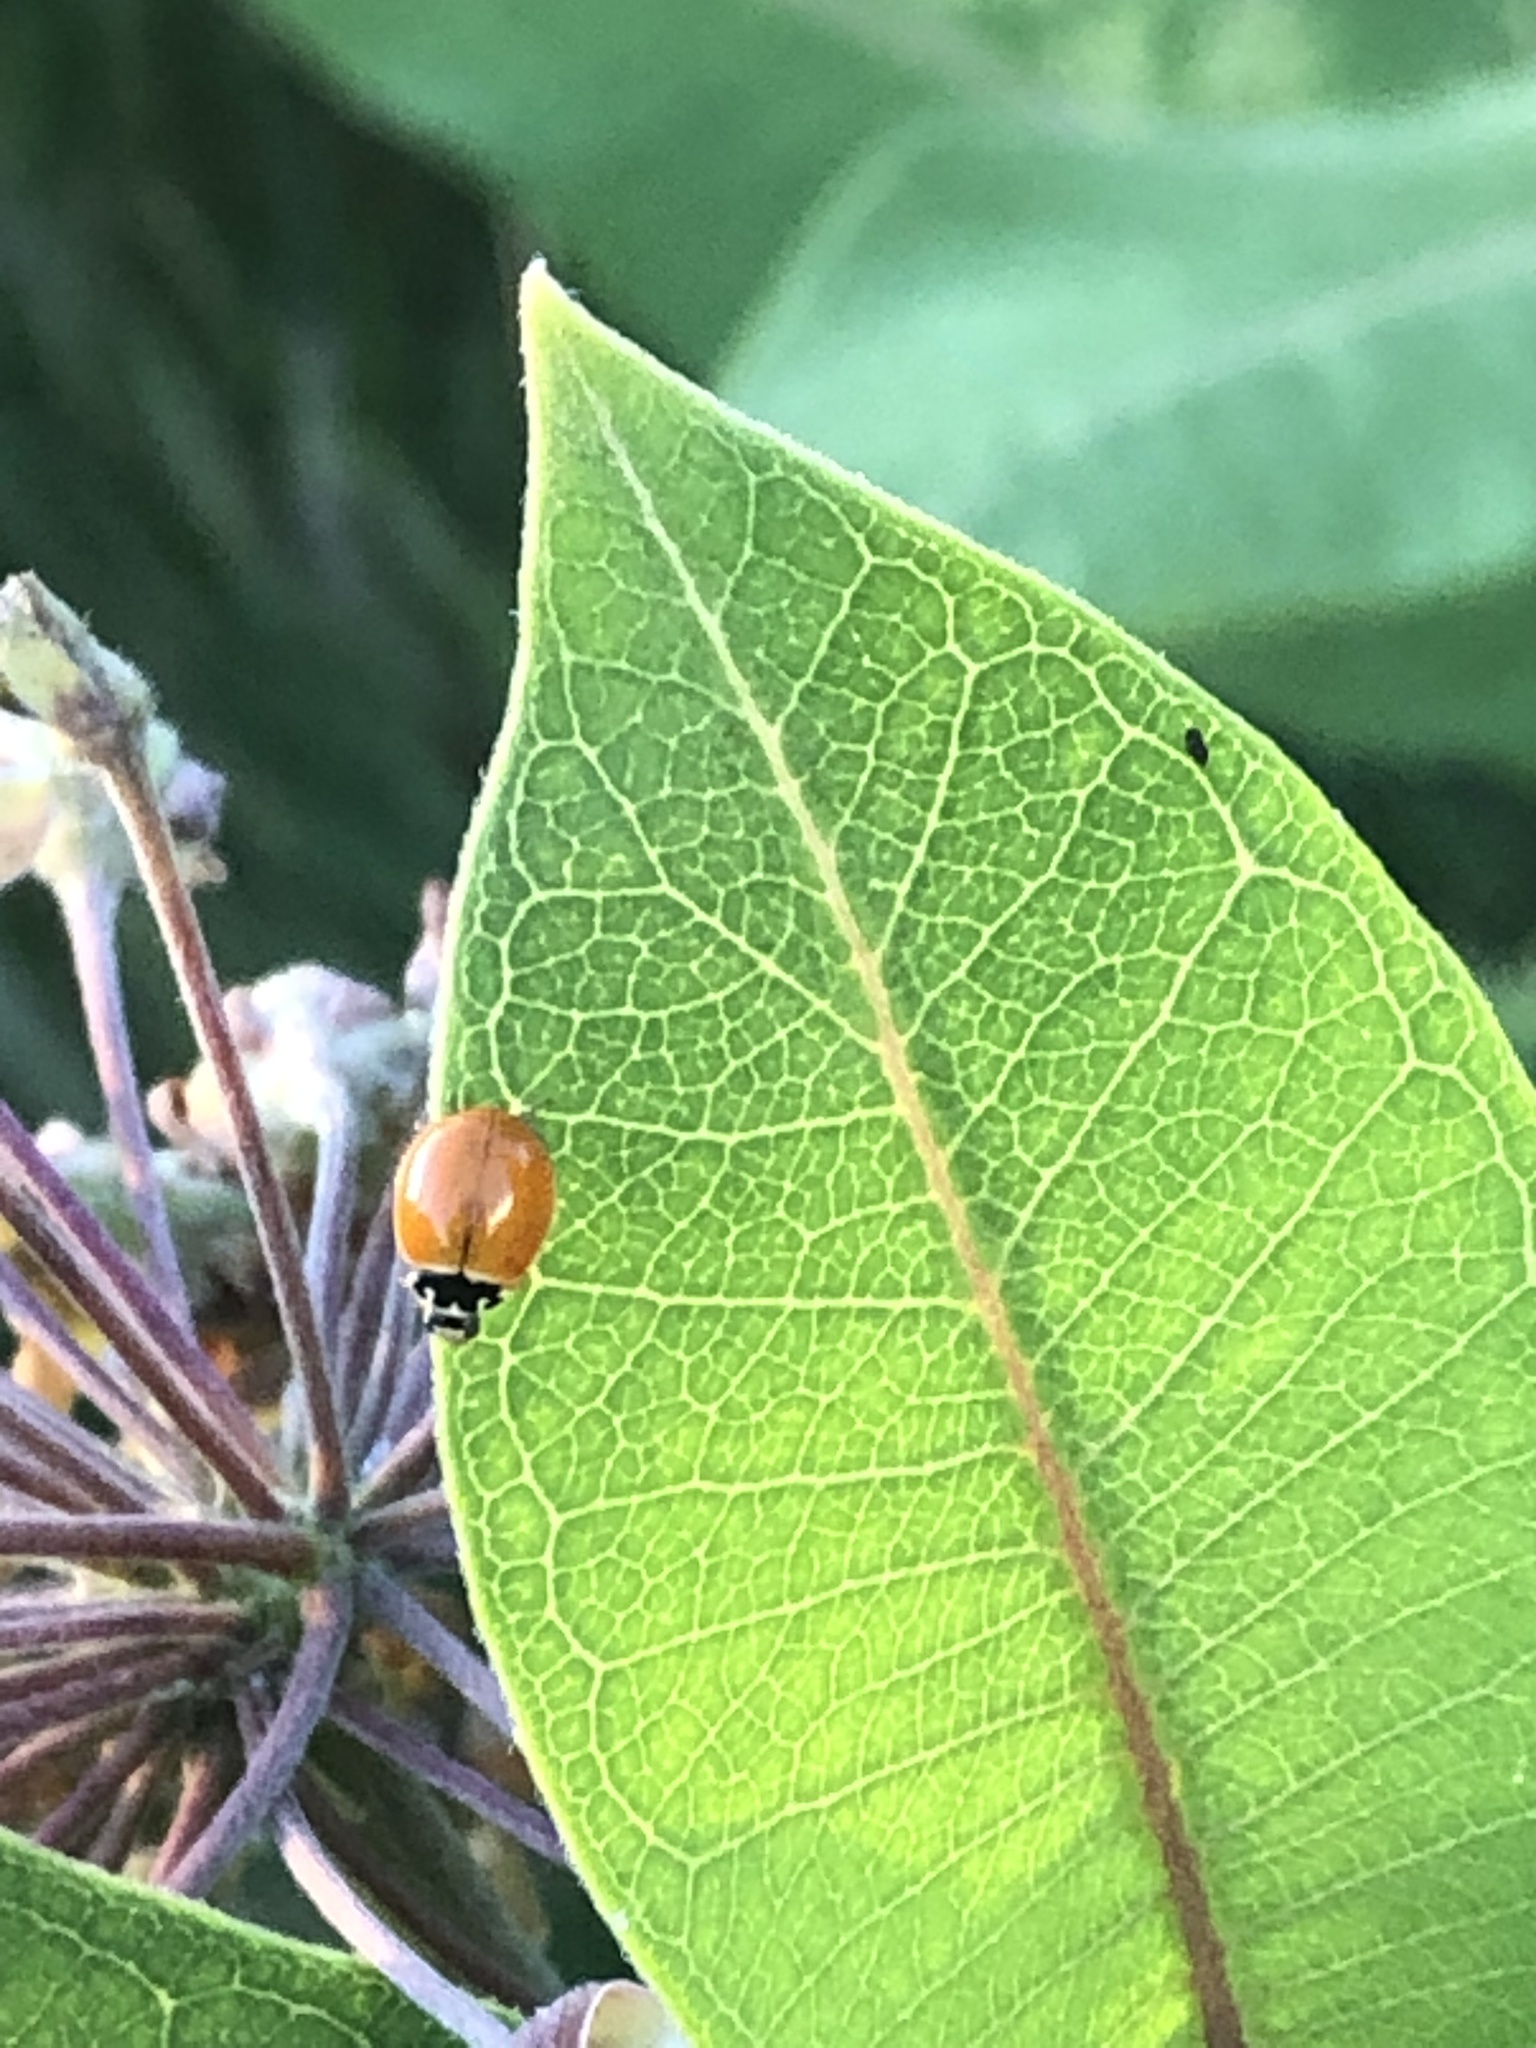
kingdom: Animalia
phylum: Arthropoda
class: Insecta
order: Coleoptera
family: Coccinellidae
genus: Cycloneda
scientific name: Cycloneda munda
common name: Polished lady beetle
